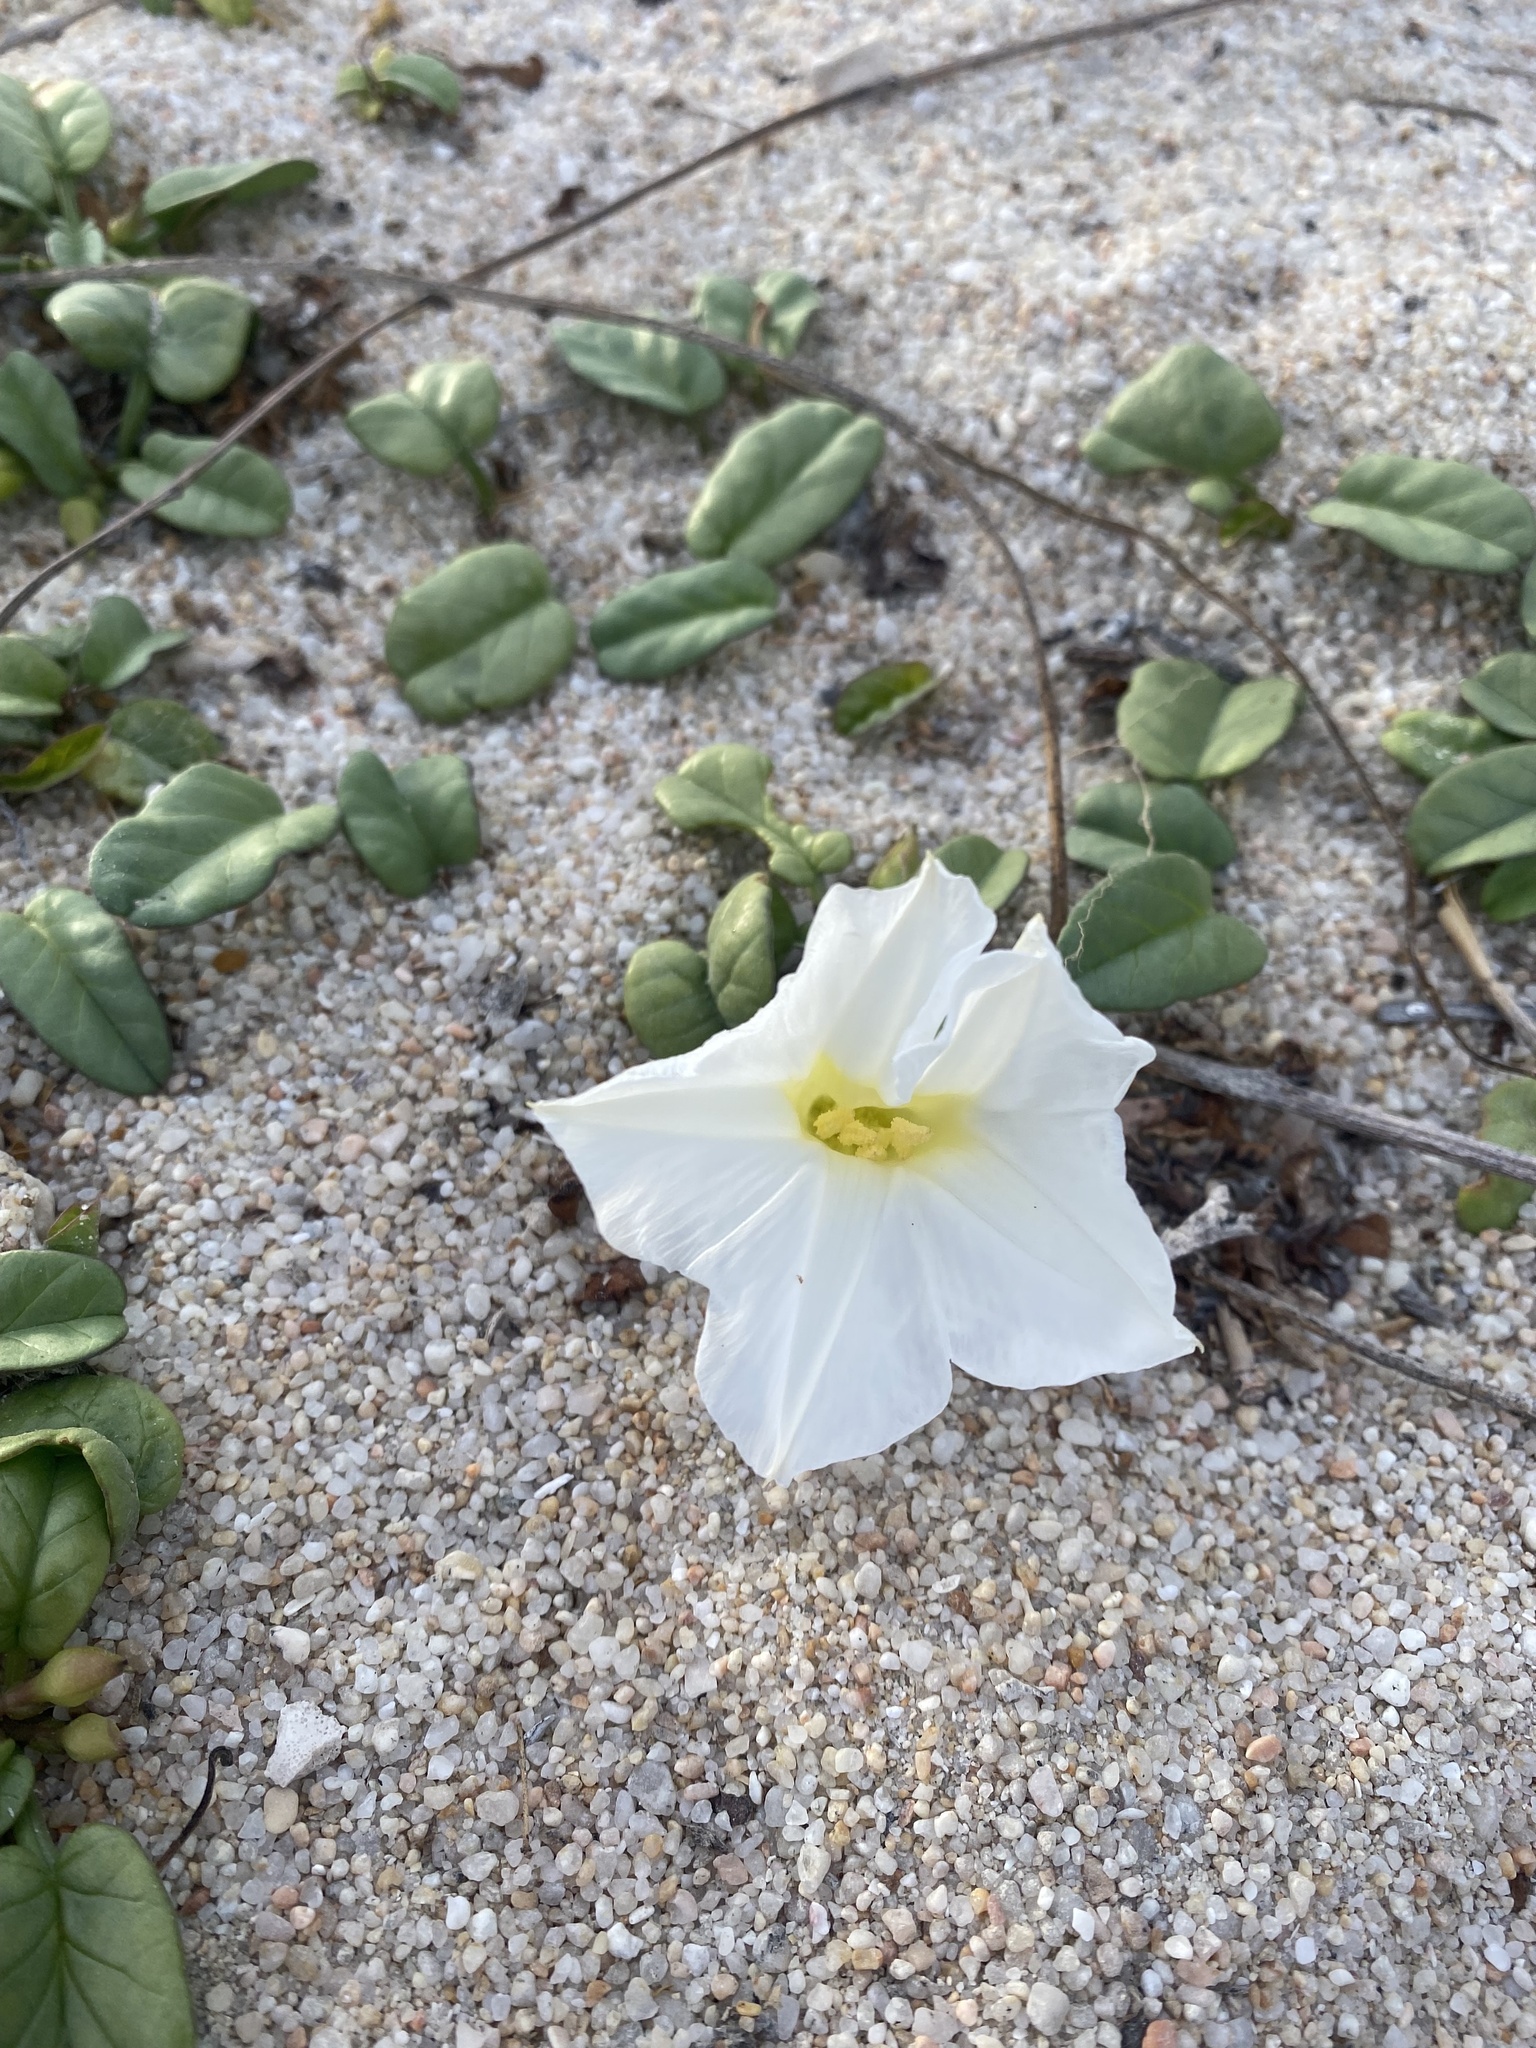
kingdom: Plantae
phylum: Tracheophyta
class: Magnoliopsida
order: Solanales
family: Convolvulaceae
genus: Ipomoea
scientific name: Ipomoea imperati
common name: Fiddle-leaf morning-glory
